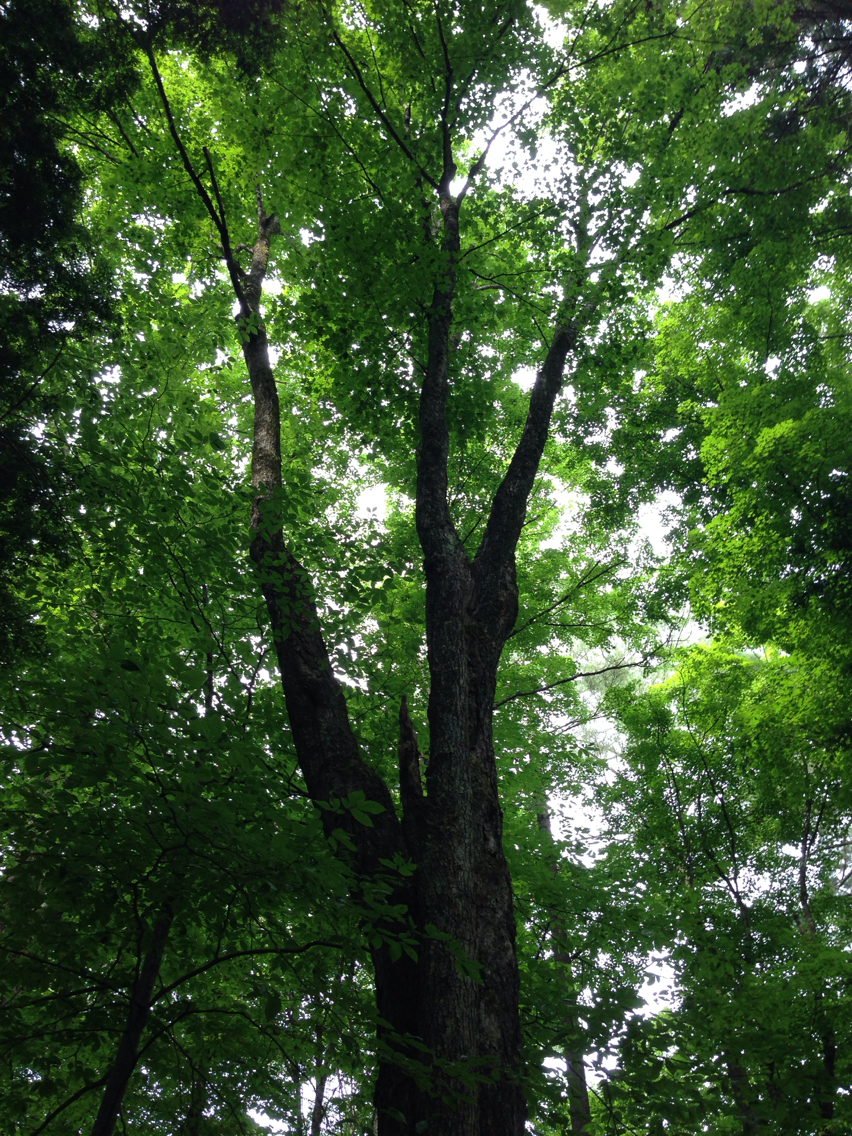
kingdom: Plantae
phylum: Tracheophyta
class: Magnoliopsida
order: Sapindales
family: Sapindaceae
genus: Acer
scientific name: Acer saccharum
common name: Sugar maple
